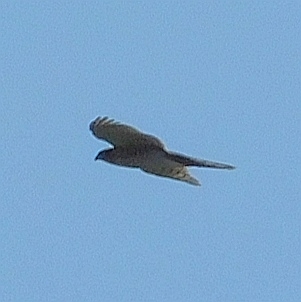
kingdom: Animalia
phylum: Chordata
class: Aves
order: Accipitriformes
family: Accipitridae
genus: Accipiter
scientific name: Accipiter nisus
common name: Eurasian sparrowhawk
